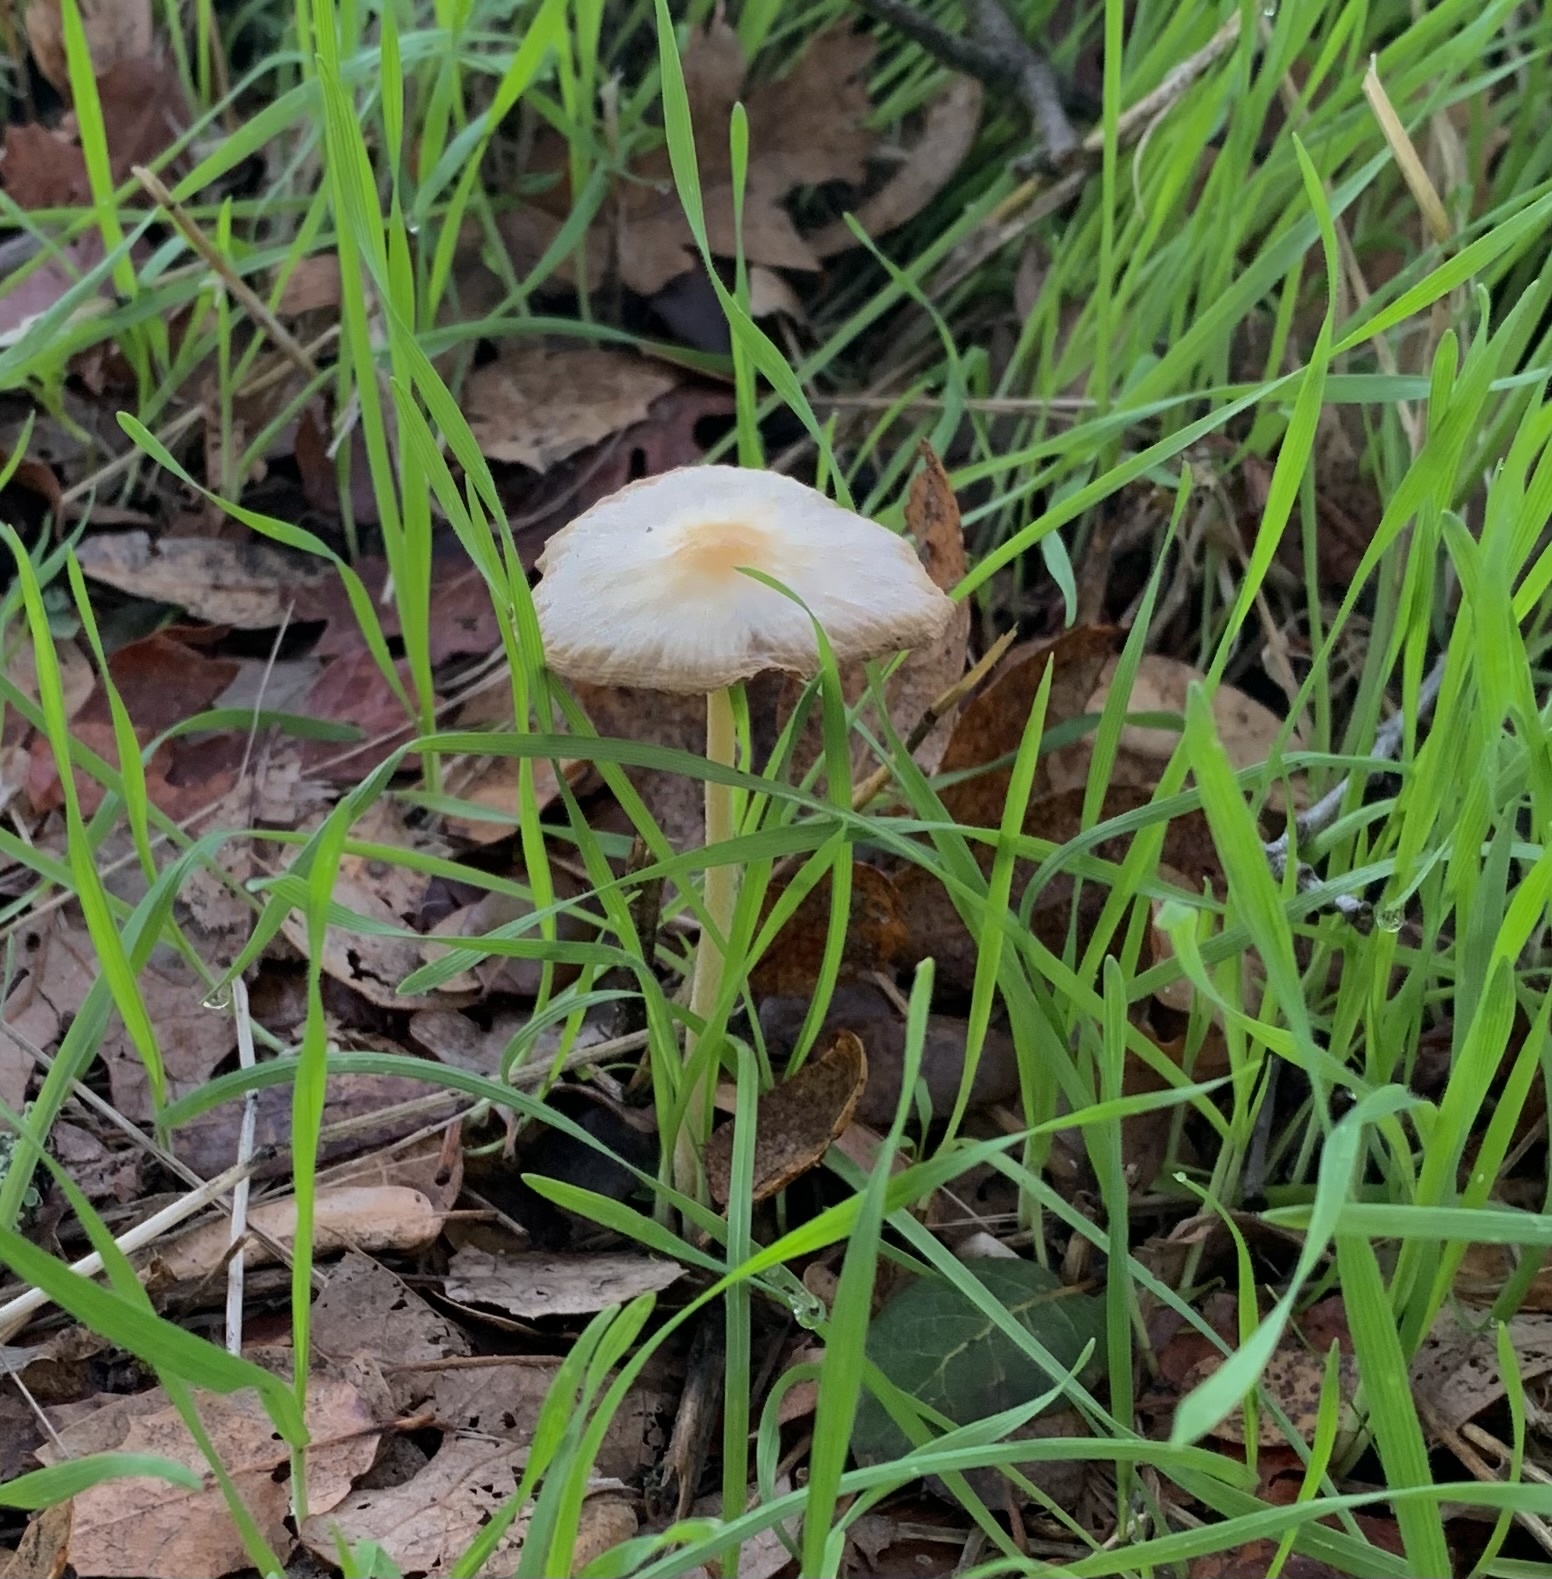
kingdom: Fungi
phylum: Basidiomycota
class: Agaricomycetes
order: Agaricales
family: Bolbitiaceae
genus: Bolbitius
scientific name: Bolbitius titubans
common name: Yellow fieldcap
